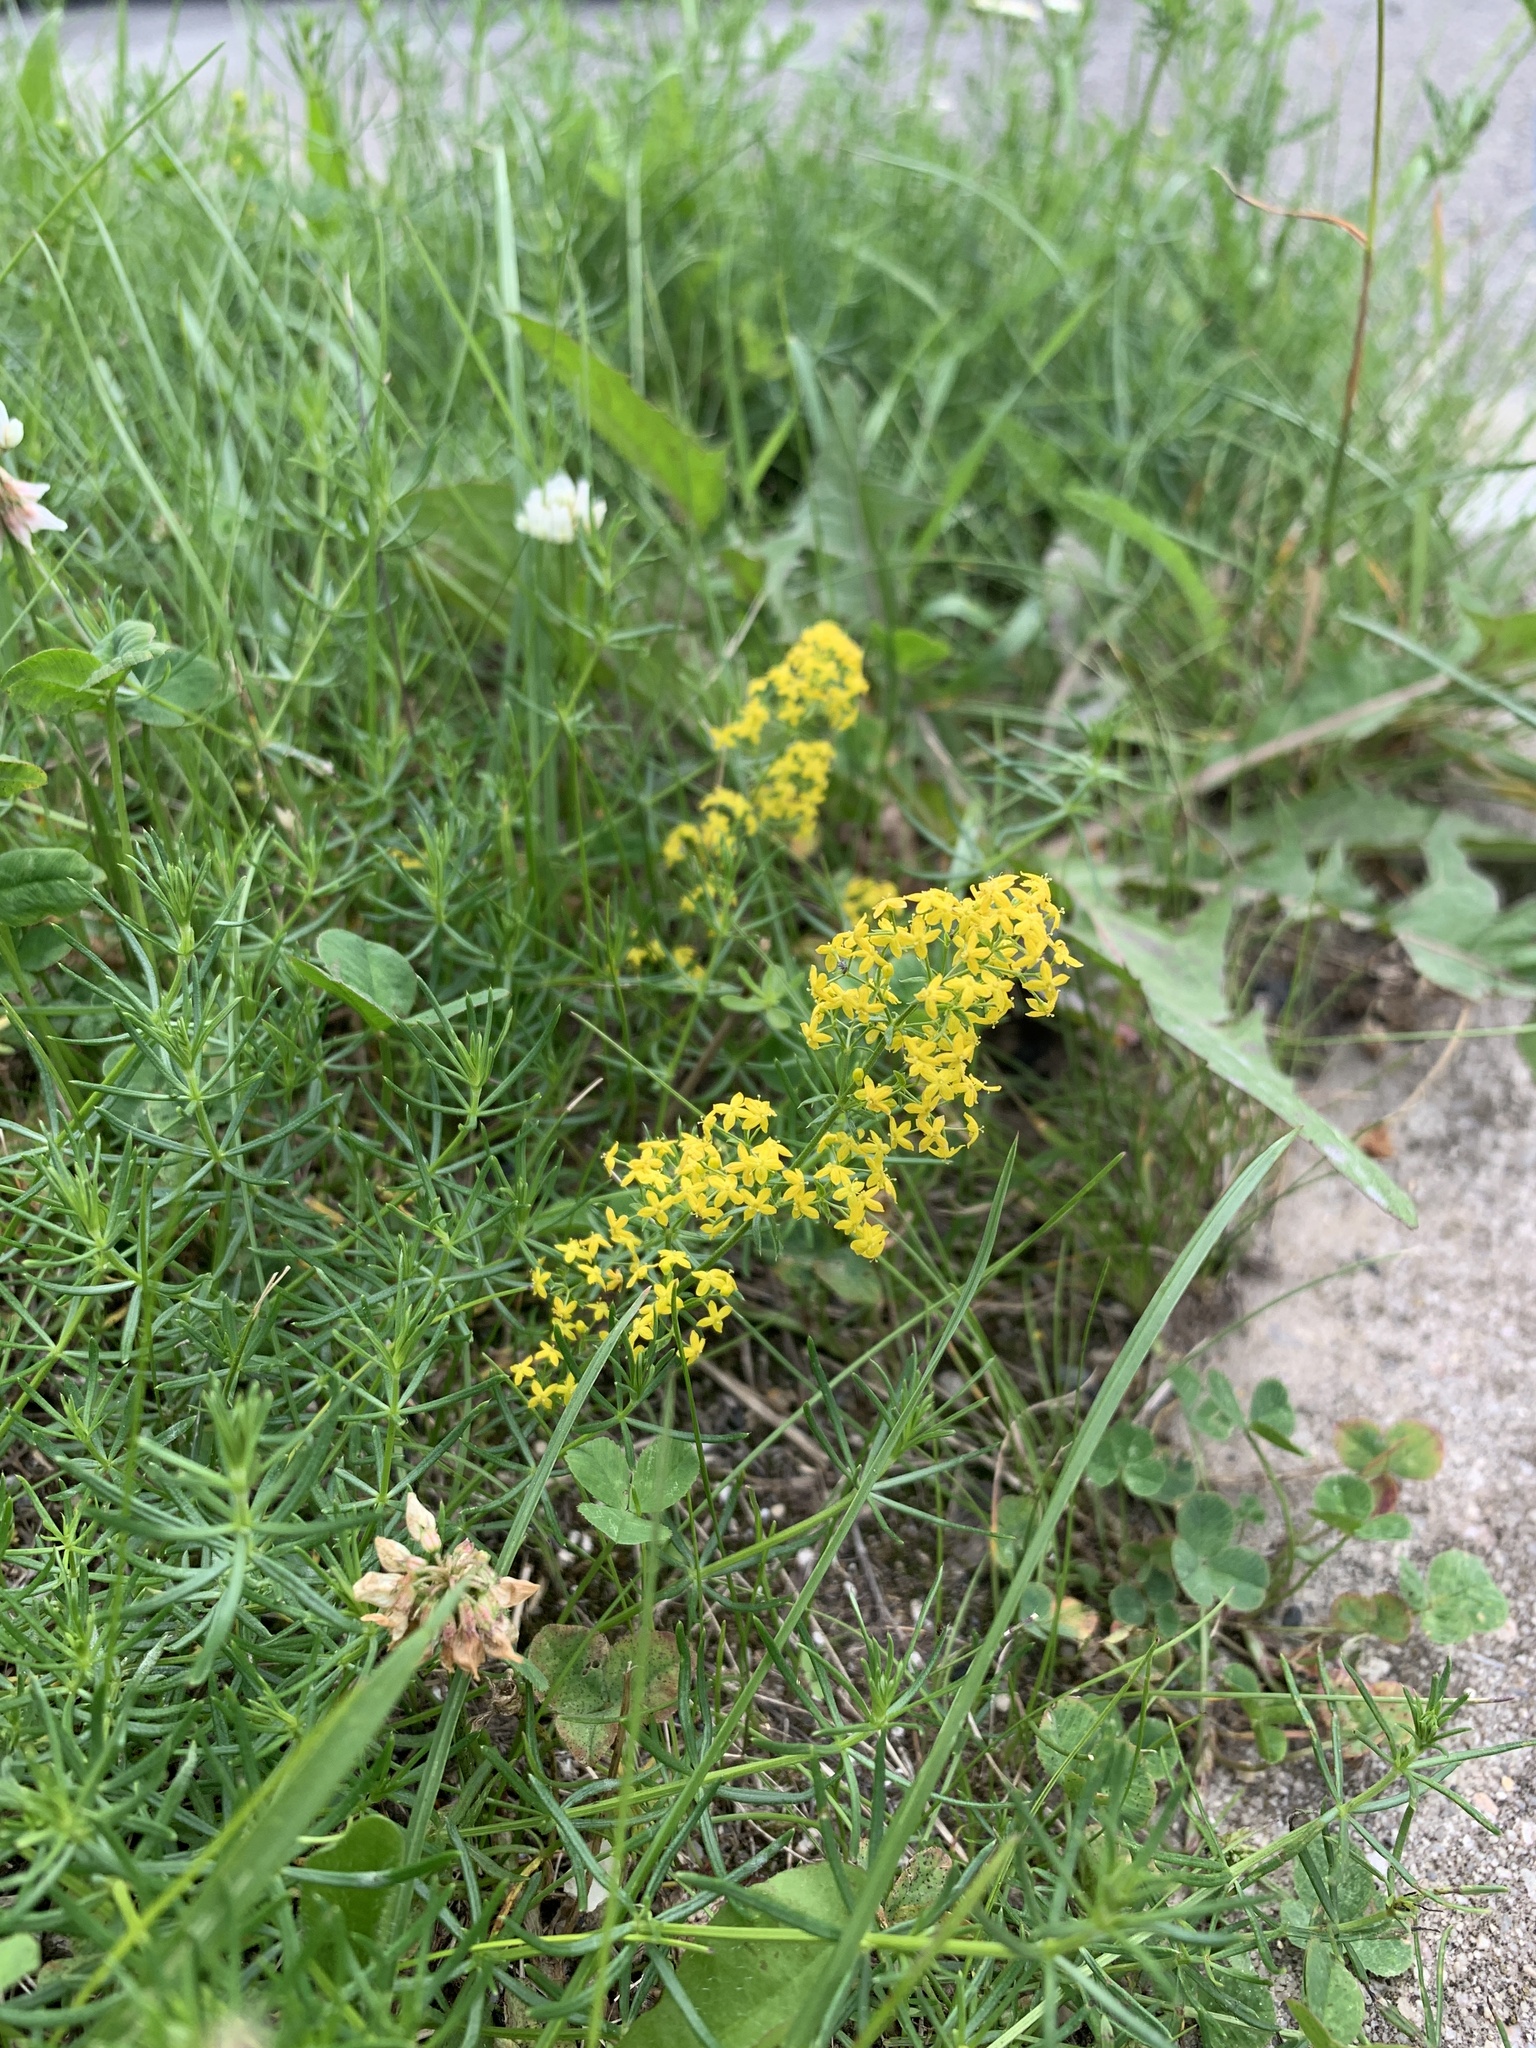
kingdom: Plantae
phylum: Tracheophyta
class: Magnoliopsida
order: Gentianales
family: Rubiaceae
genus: Galium
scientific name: Galium verum
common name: Lady's bedstraw
